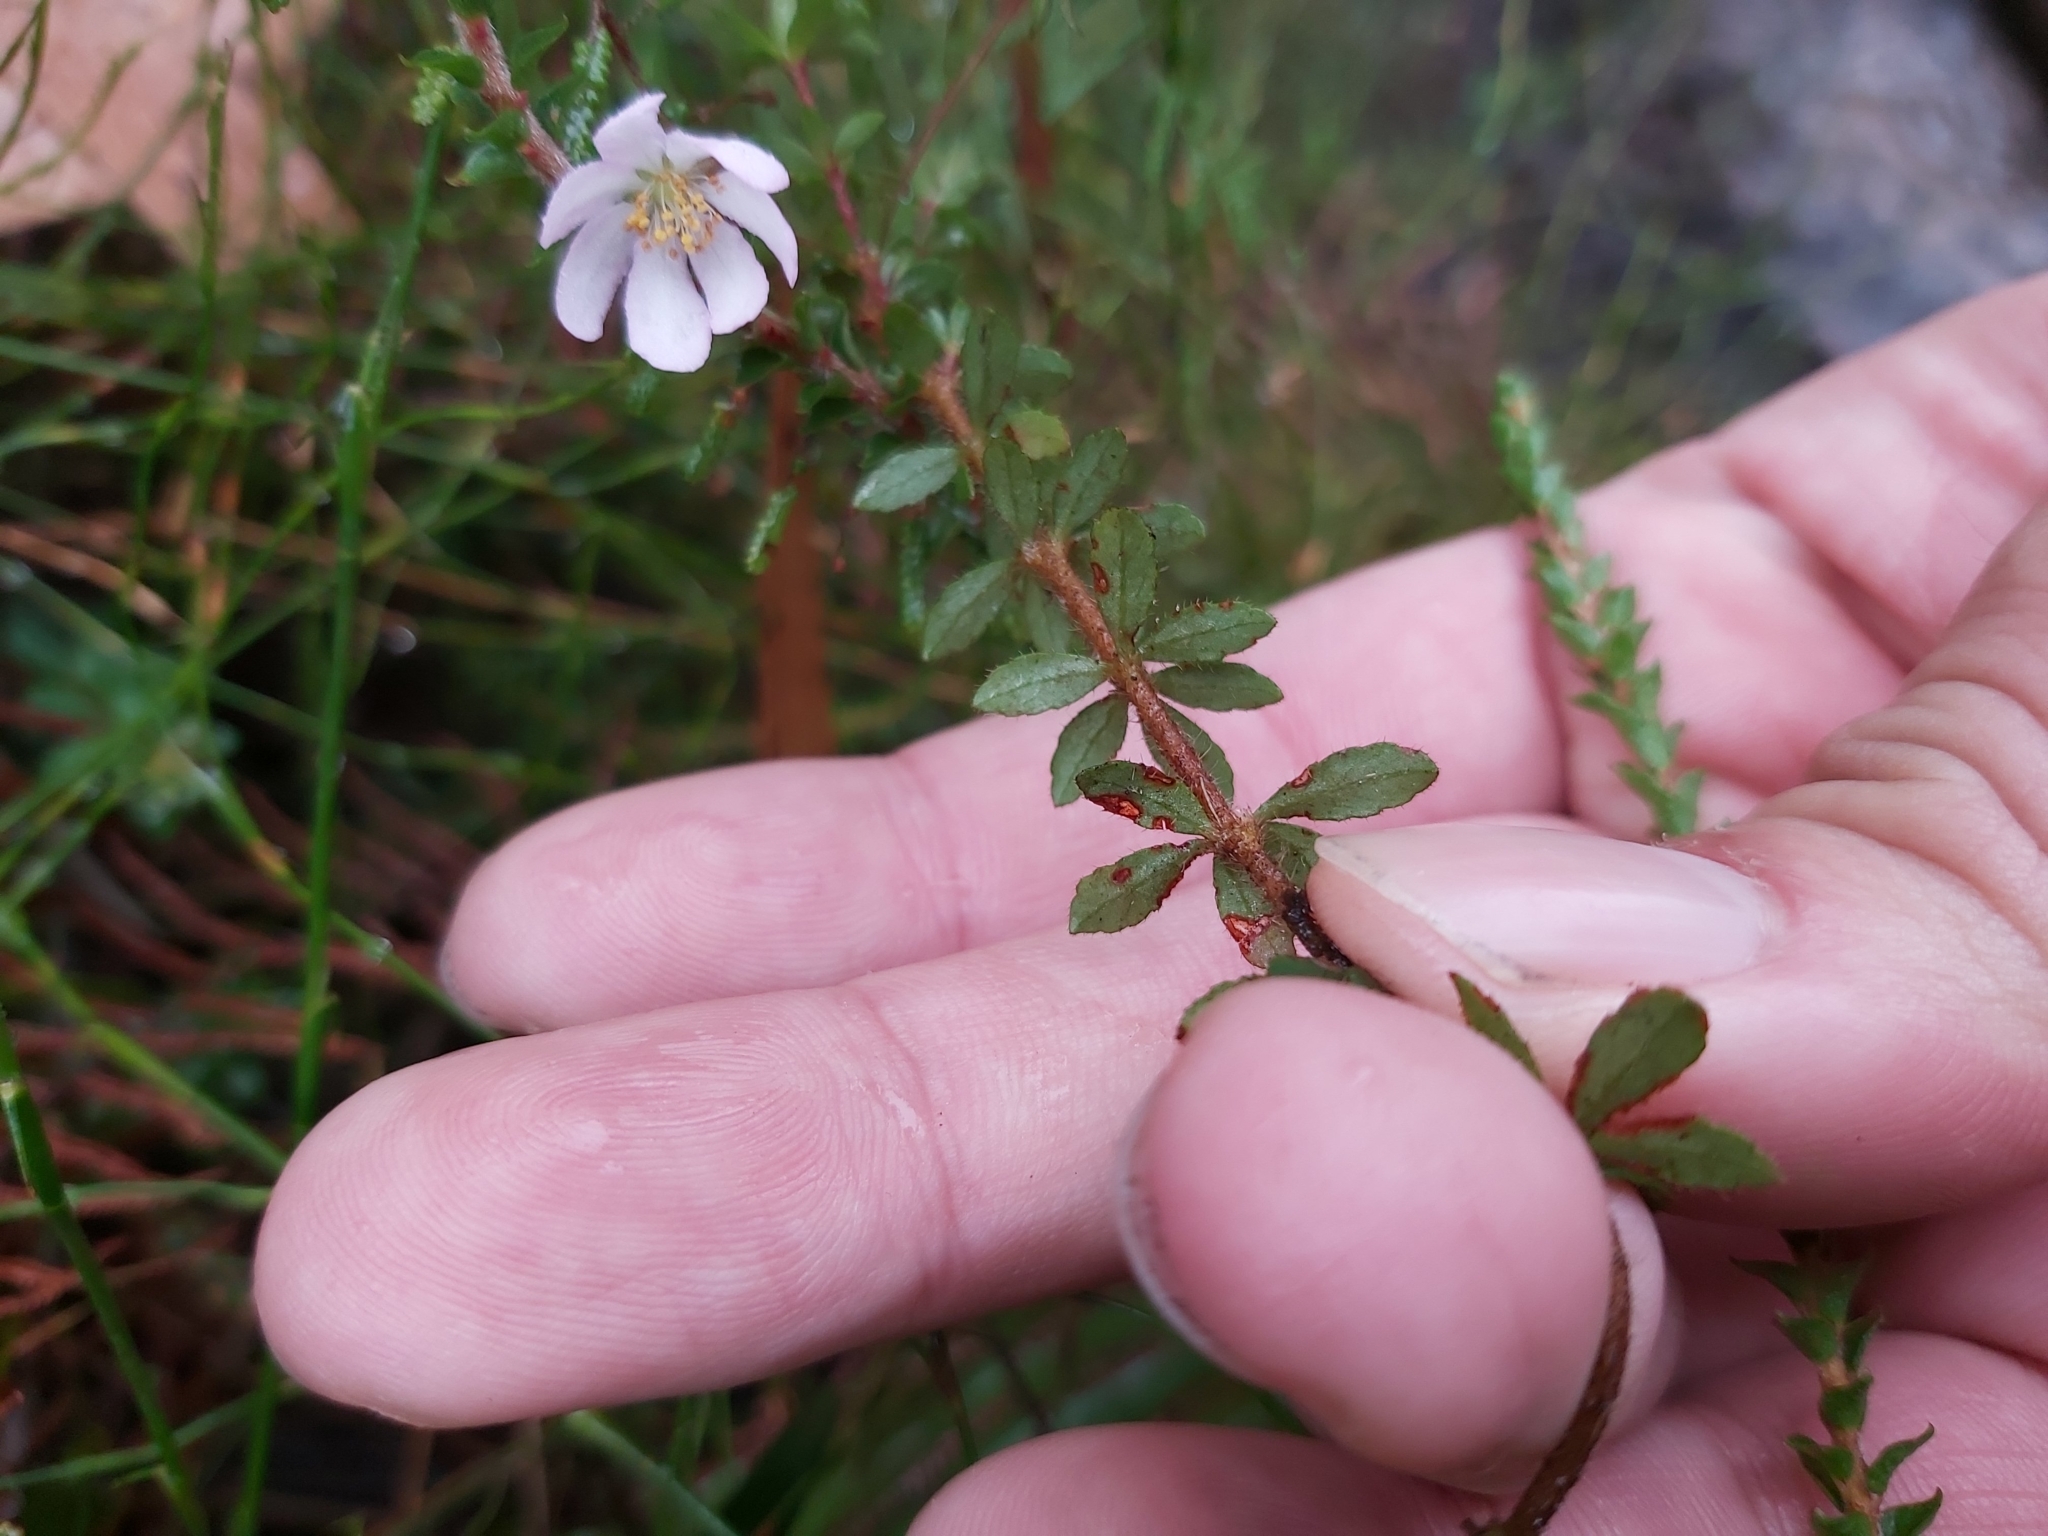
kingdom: Plantae
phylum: Tracheophyta
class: Magnoliopsida
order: Oxalidales
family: Cunoniaceae
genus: Bauera
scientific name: Bauera rubioides
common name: River-rose
